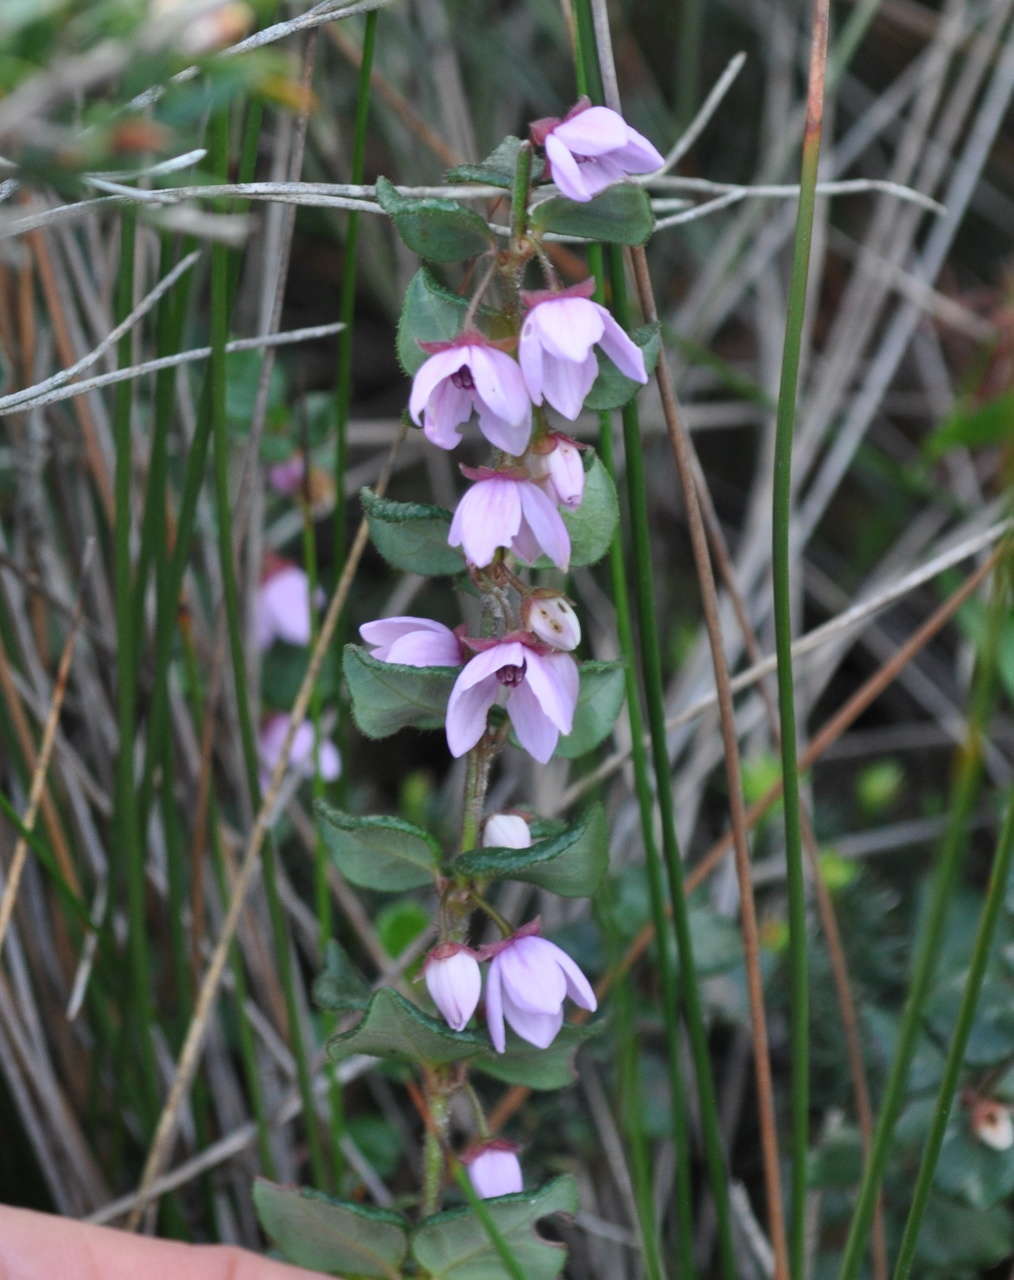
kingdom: Plantae
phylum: Tracheophyta
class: Magnoliopsida
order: Oxalidales
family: Elaeocarpaceae
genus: Tetratheca
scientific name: Tetratheca ciliata
